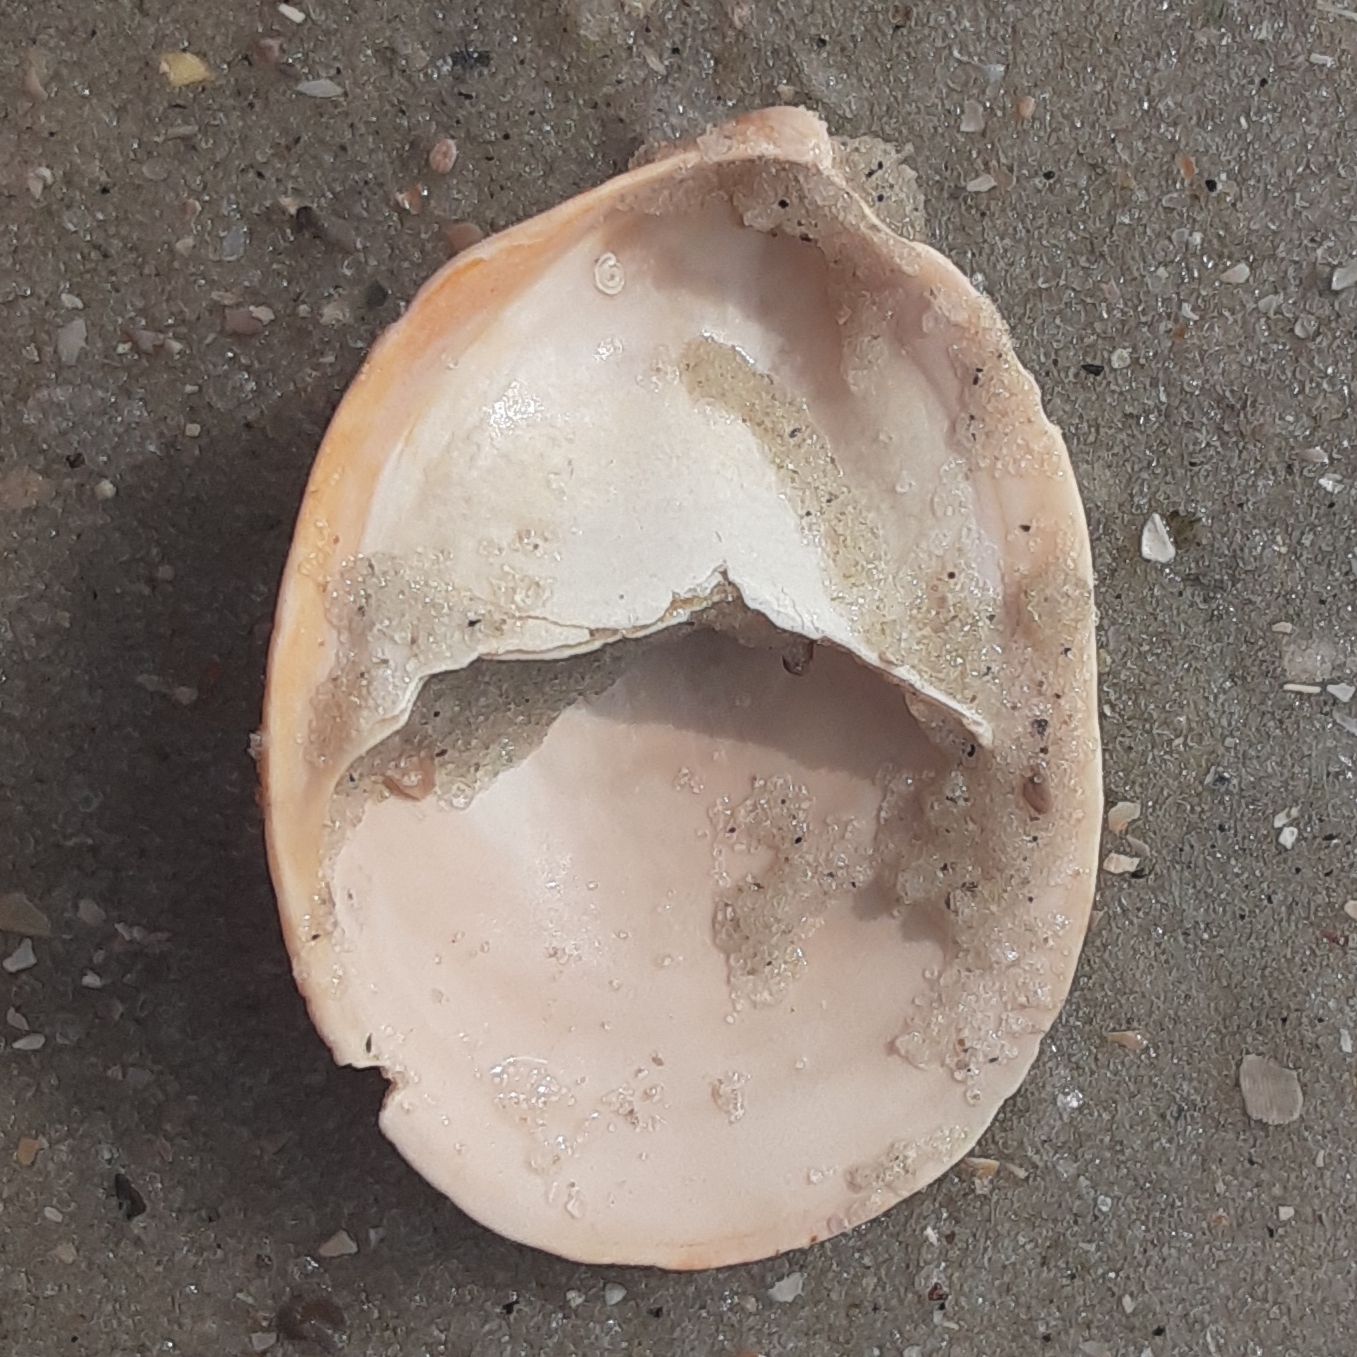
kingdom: Animalia
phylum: Mollusca
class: Gastropoda
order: Littorinimorpha
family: Calyptraeidae
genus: Crepidula
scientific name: Crepidula fornicata
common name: Slipper limpet
